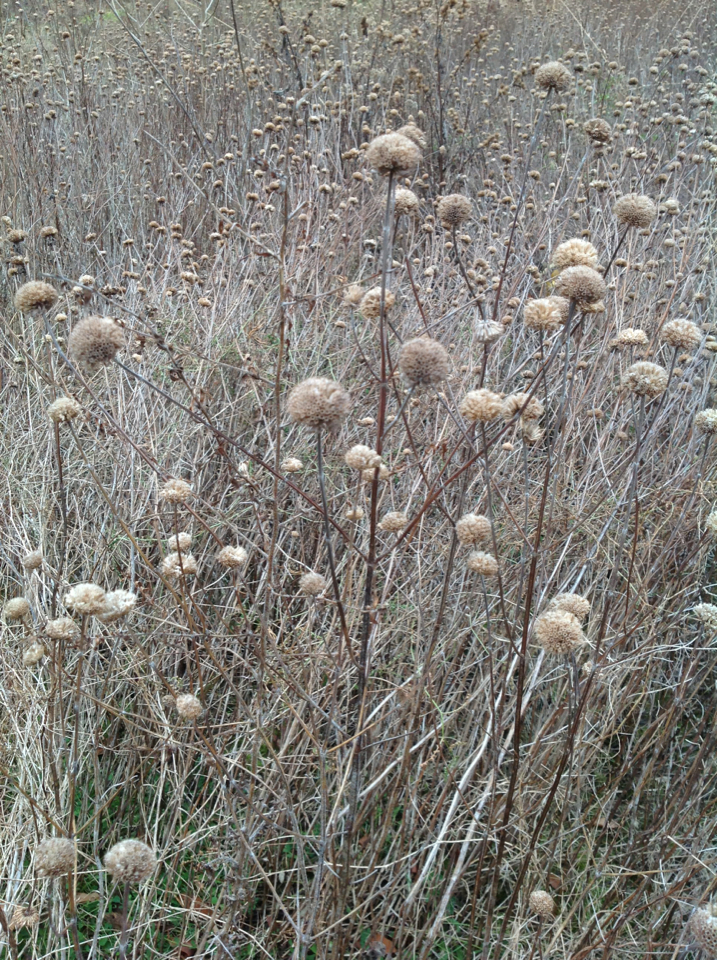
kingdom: Plantae
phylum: Tracheophyta
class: Magnoliopsida
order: Lamiales
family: Lamiaceae
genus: Monarda
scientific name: Monarda fistulosa
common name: Purple beebalm
